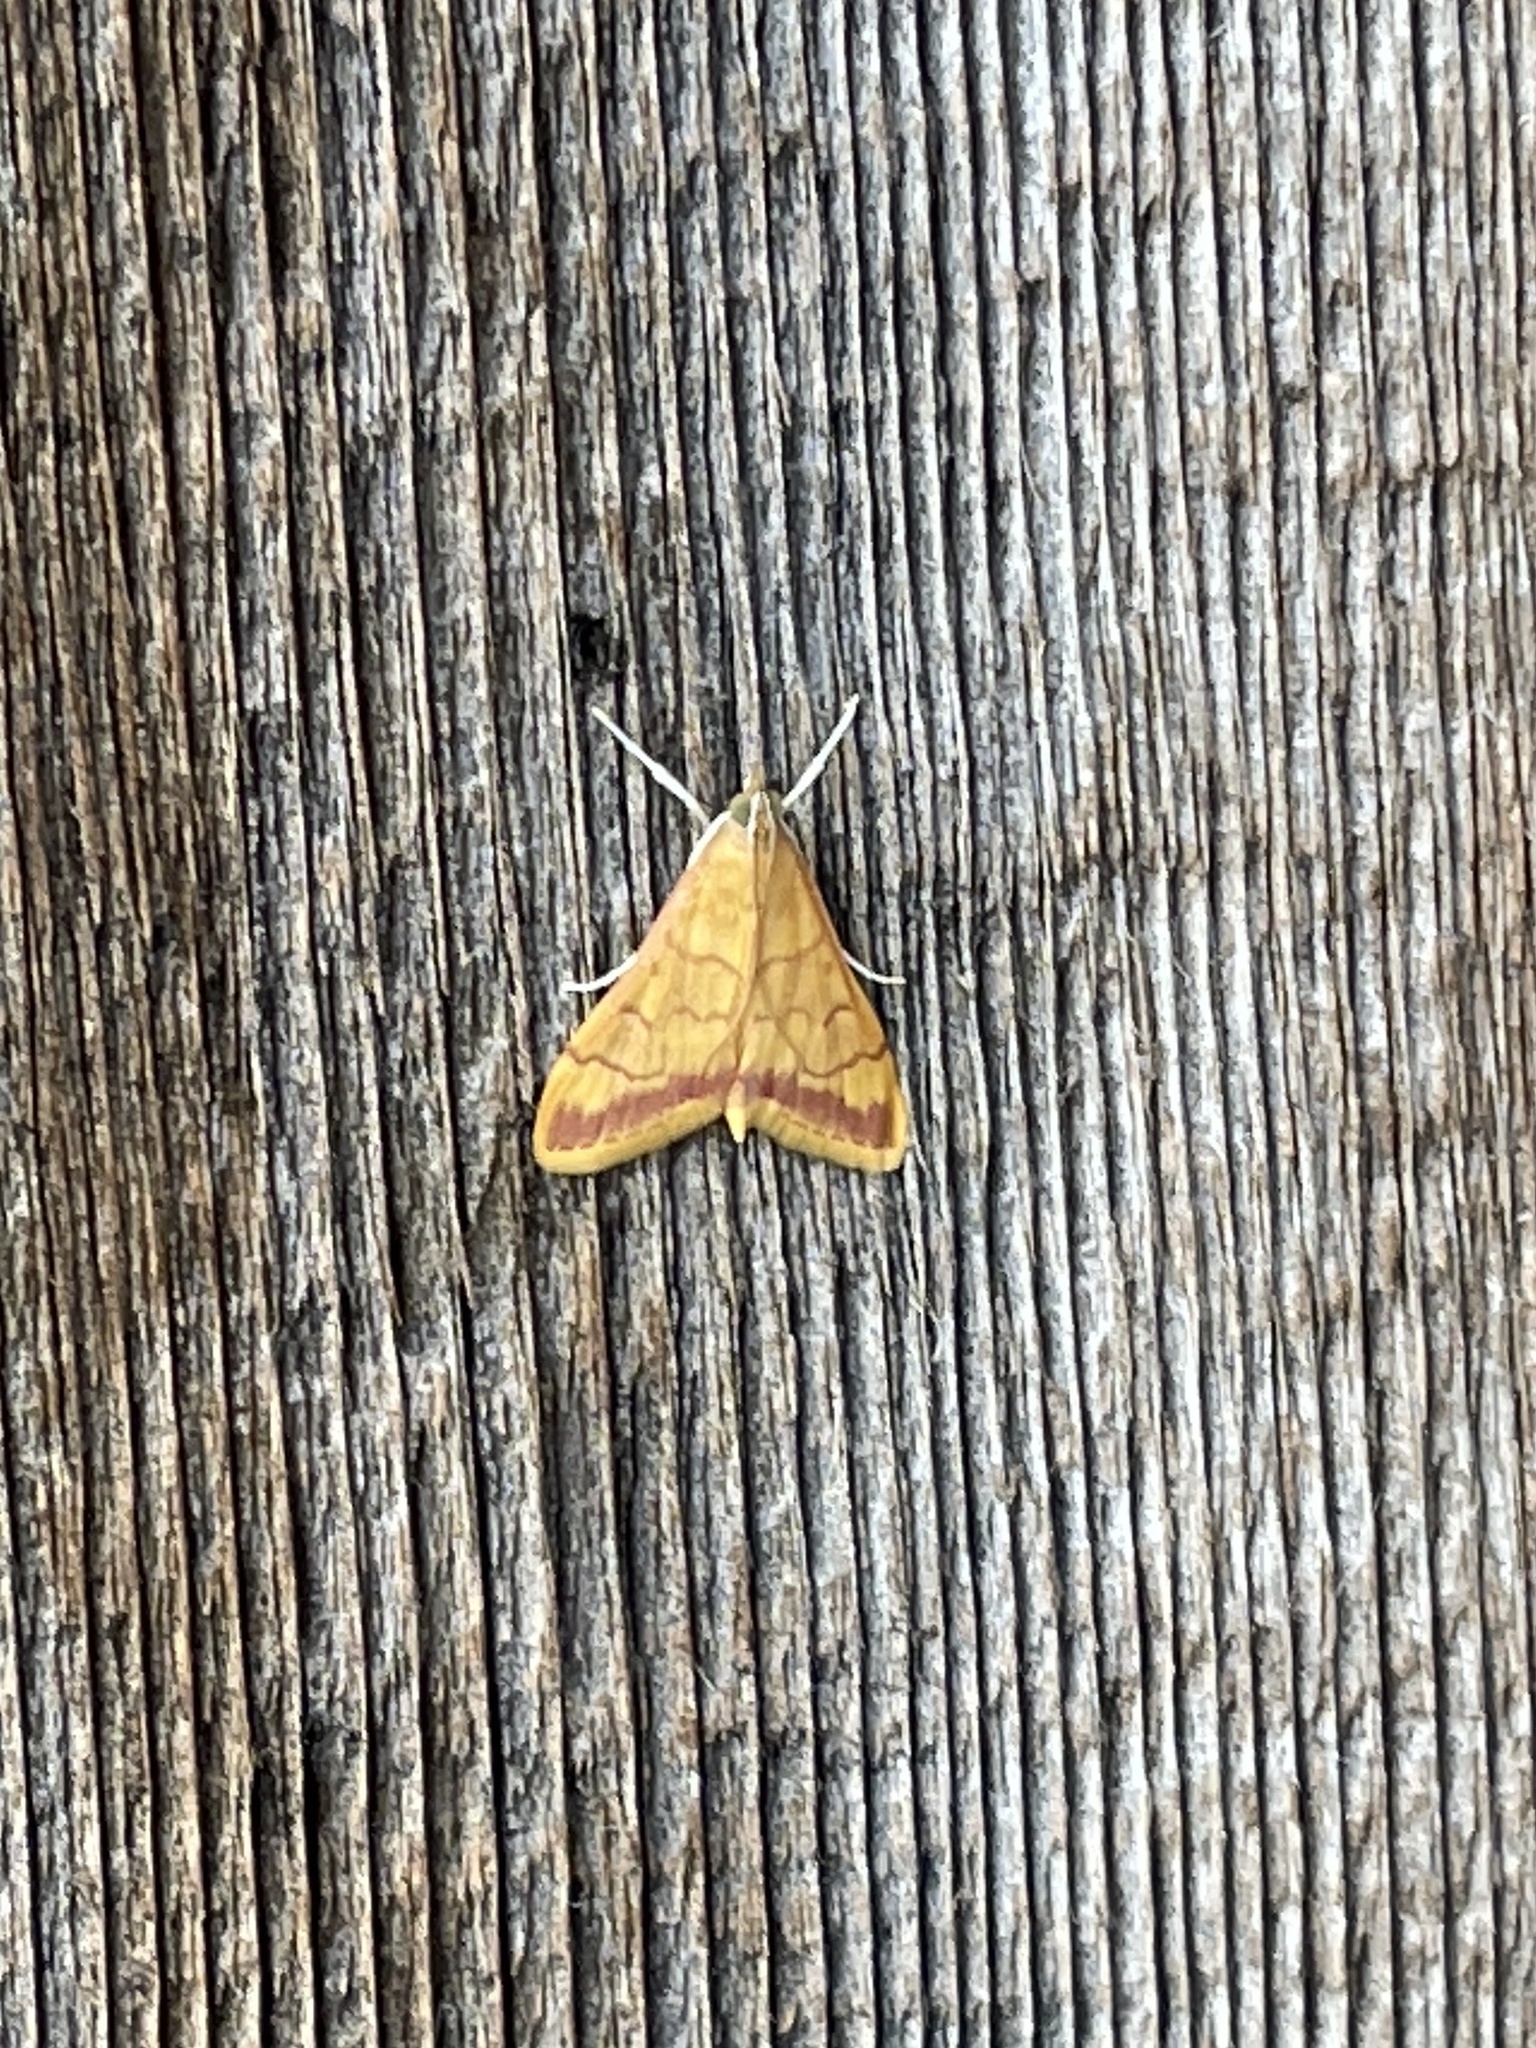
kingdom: Animalia
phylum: Arthropoda
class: Insecta
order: Lepidoptera
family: Crambidae
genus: Pyrausta
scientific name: Pyrausta pseudonythesalis
